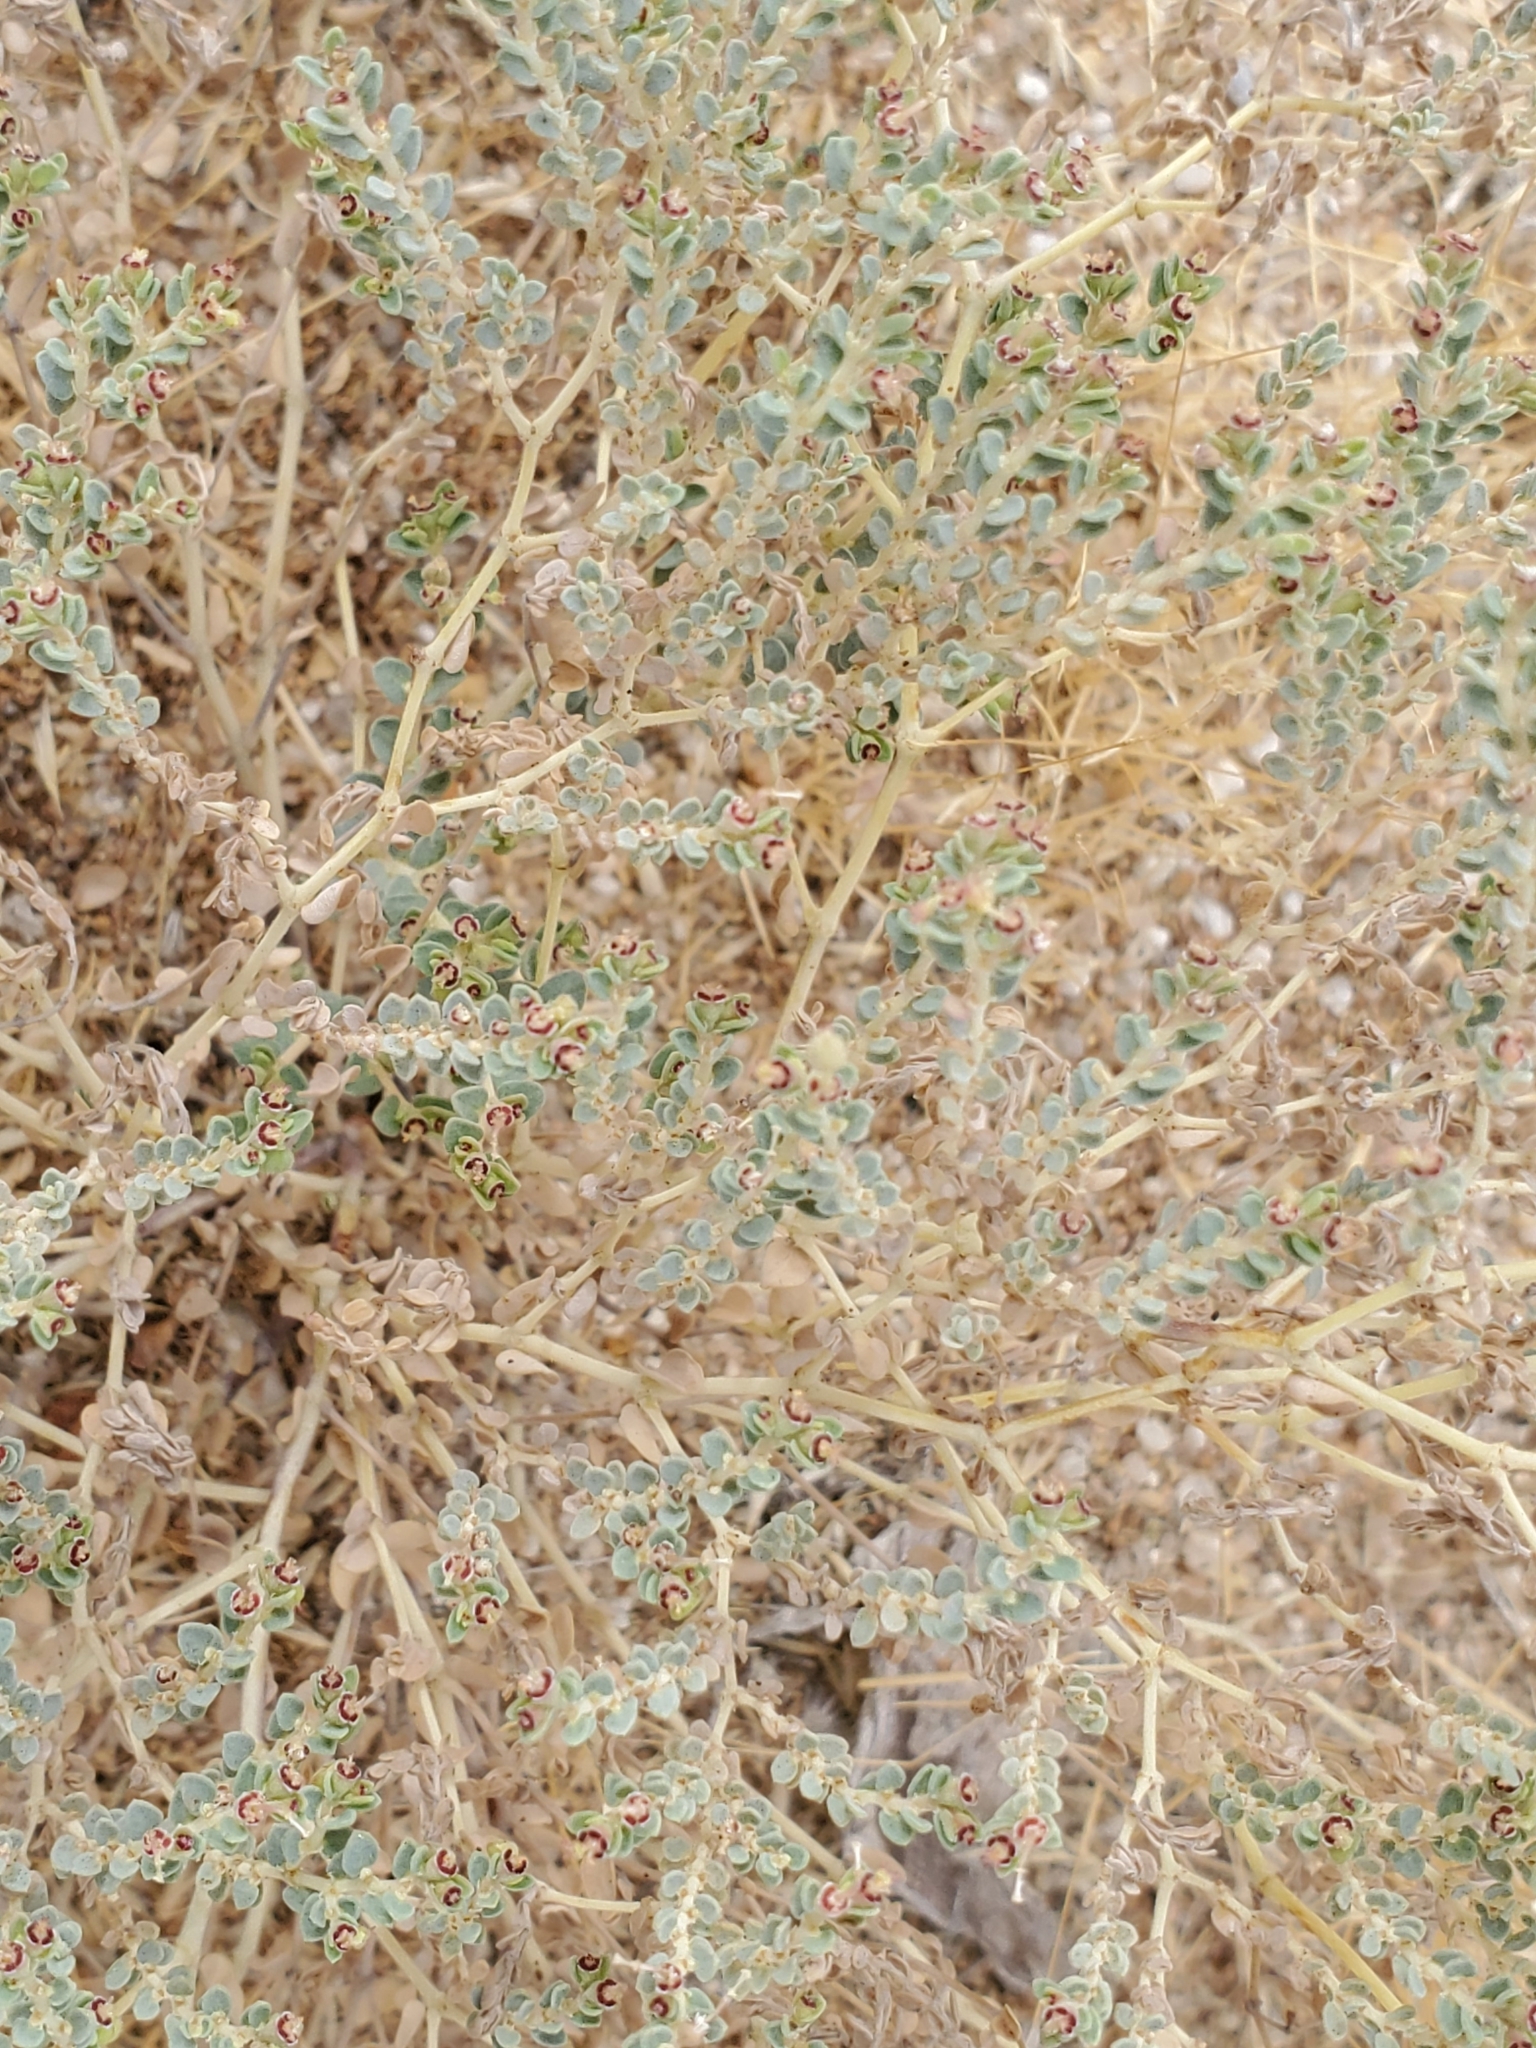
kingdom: Plantae
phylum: Tracheophyta
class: Magnoliopsida
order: Malpighiales
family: Euphorbiaceae
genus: Euphorbia
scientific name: Euphorbia polycarpa
